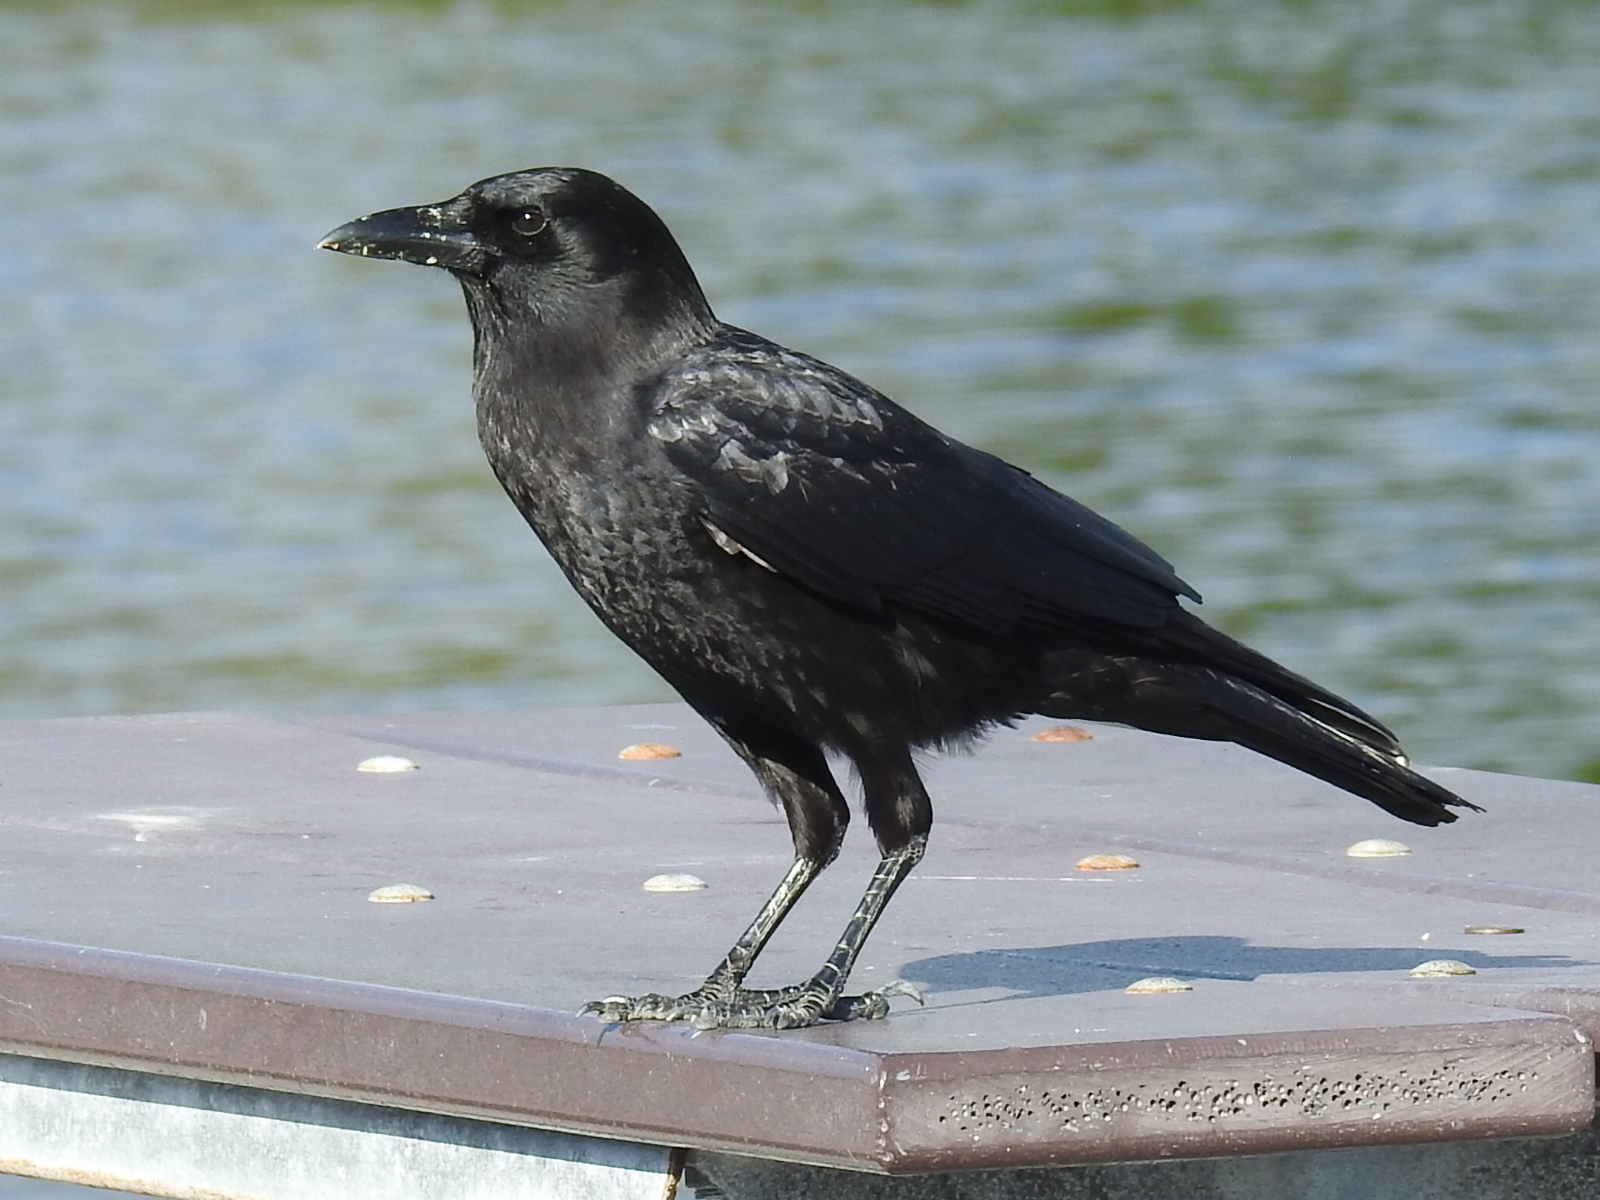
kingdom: Animalia
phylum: Chordata
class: Aves
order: Passeriformes
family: Corvidae
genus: Corvus
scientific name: Corvus brachyrhynchos
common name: American crow
